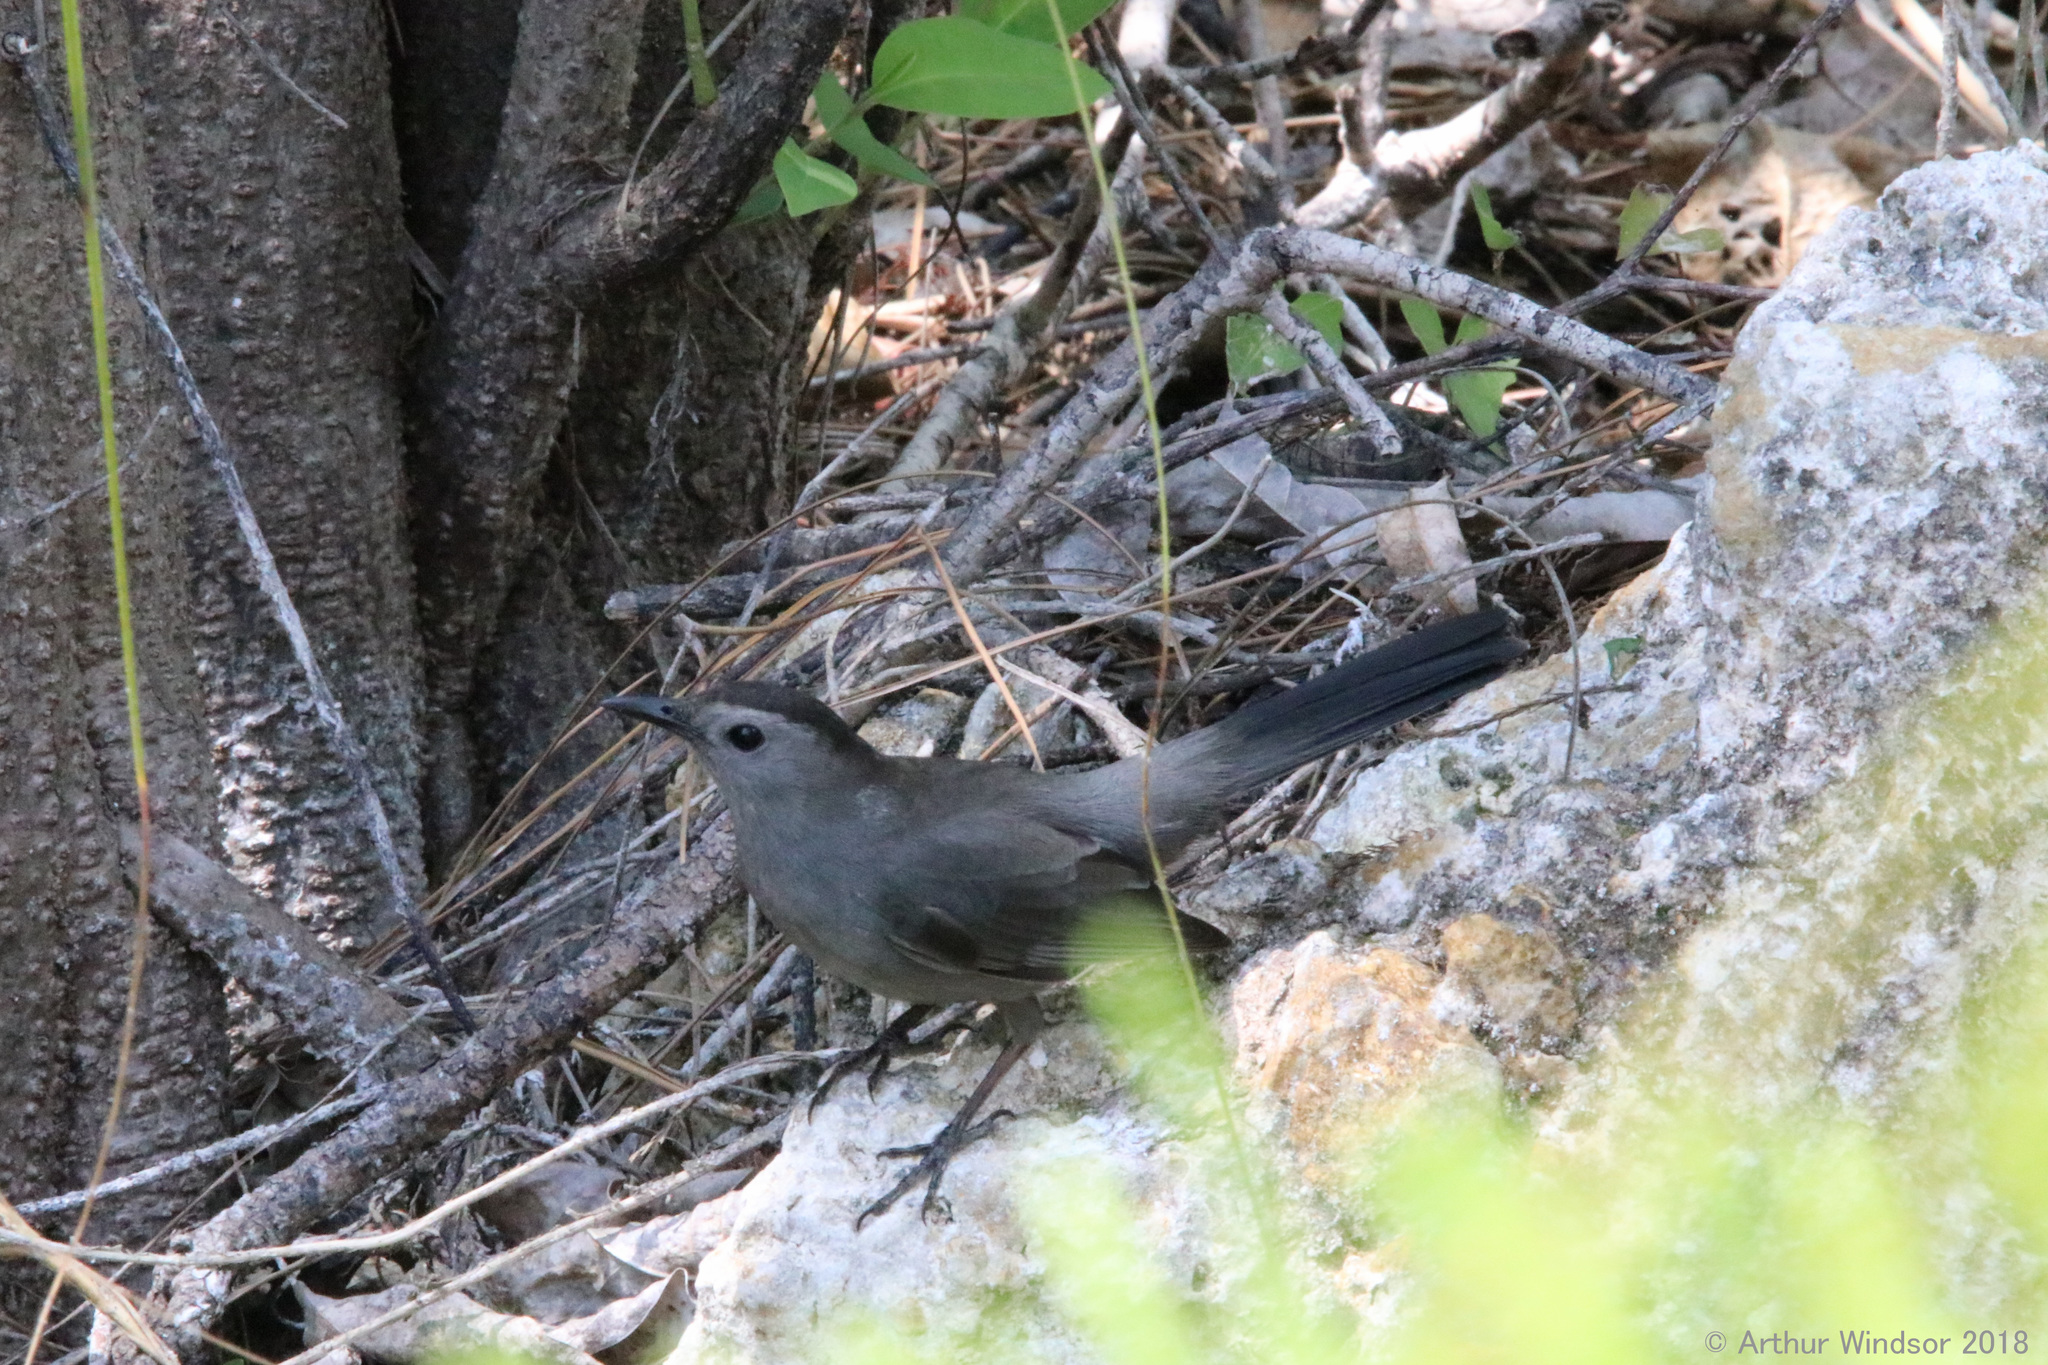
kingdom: Animalia
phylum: Chordata
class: Aves
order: Passeriformes
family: Mimidae
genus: Dumetella
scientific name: Dumetella carolinensis
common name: Gray catbird
